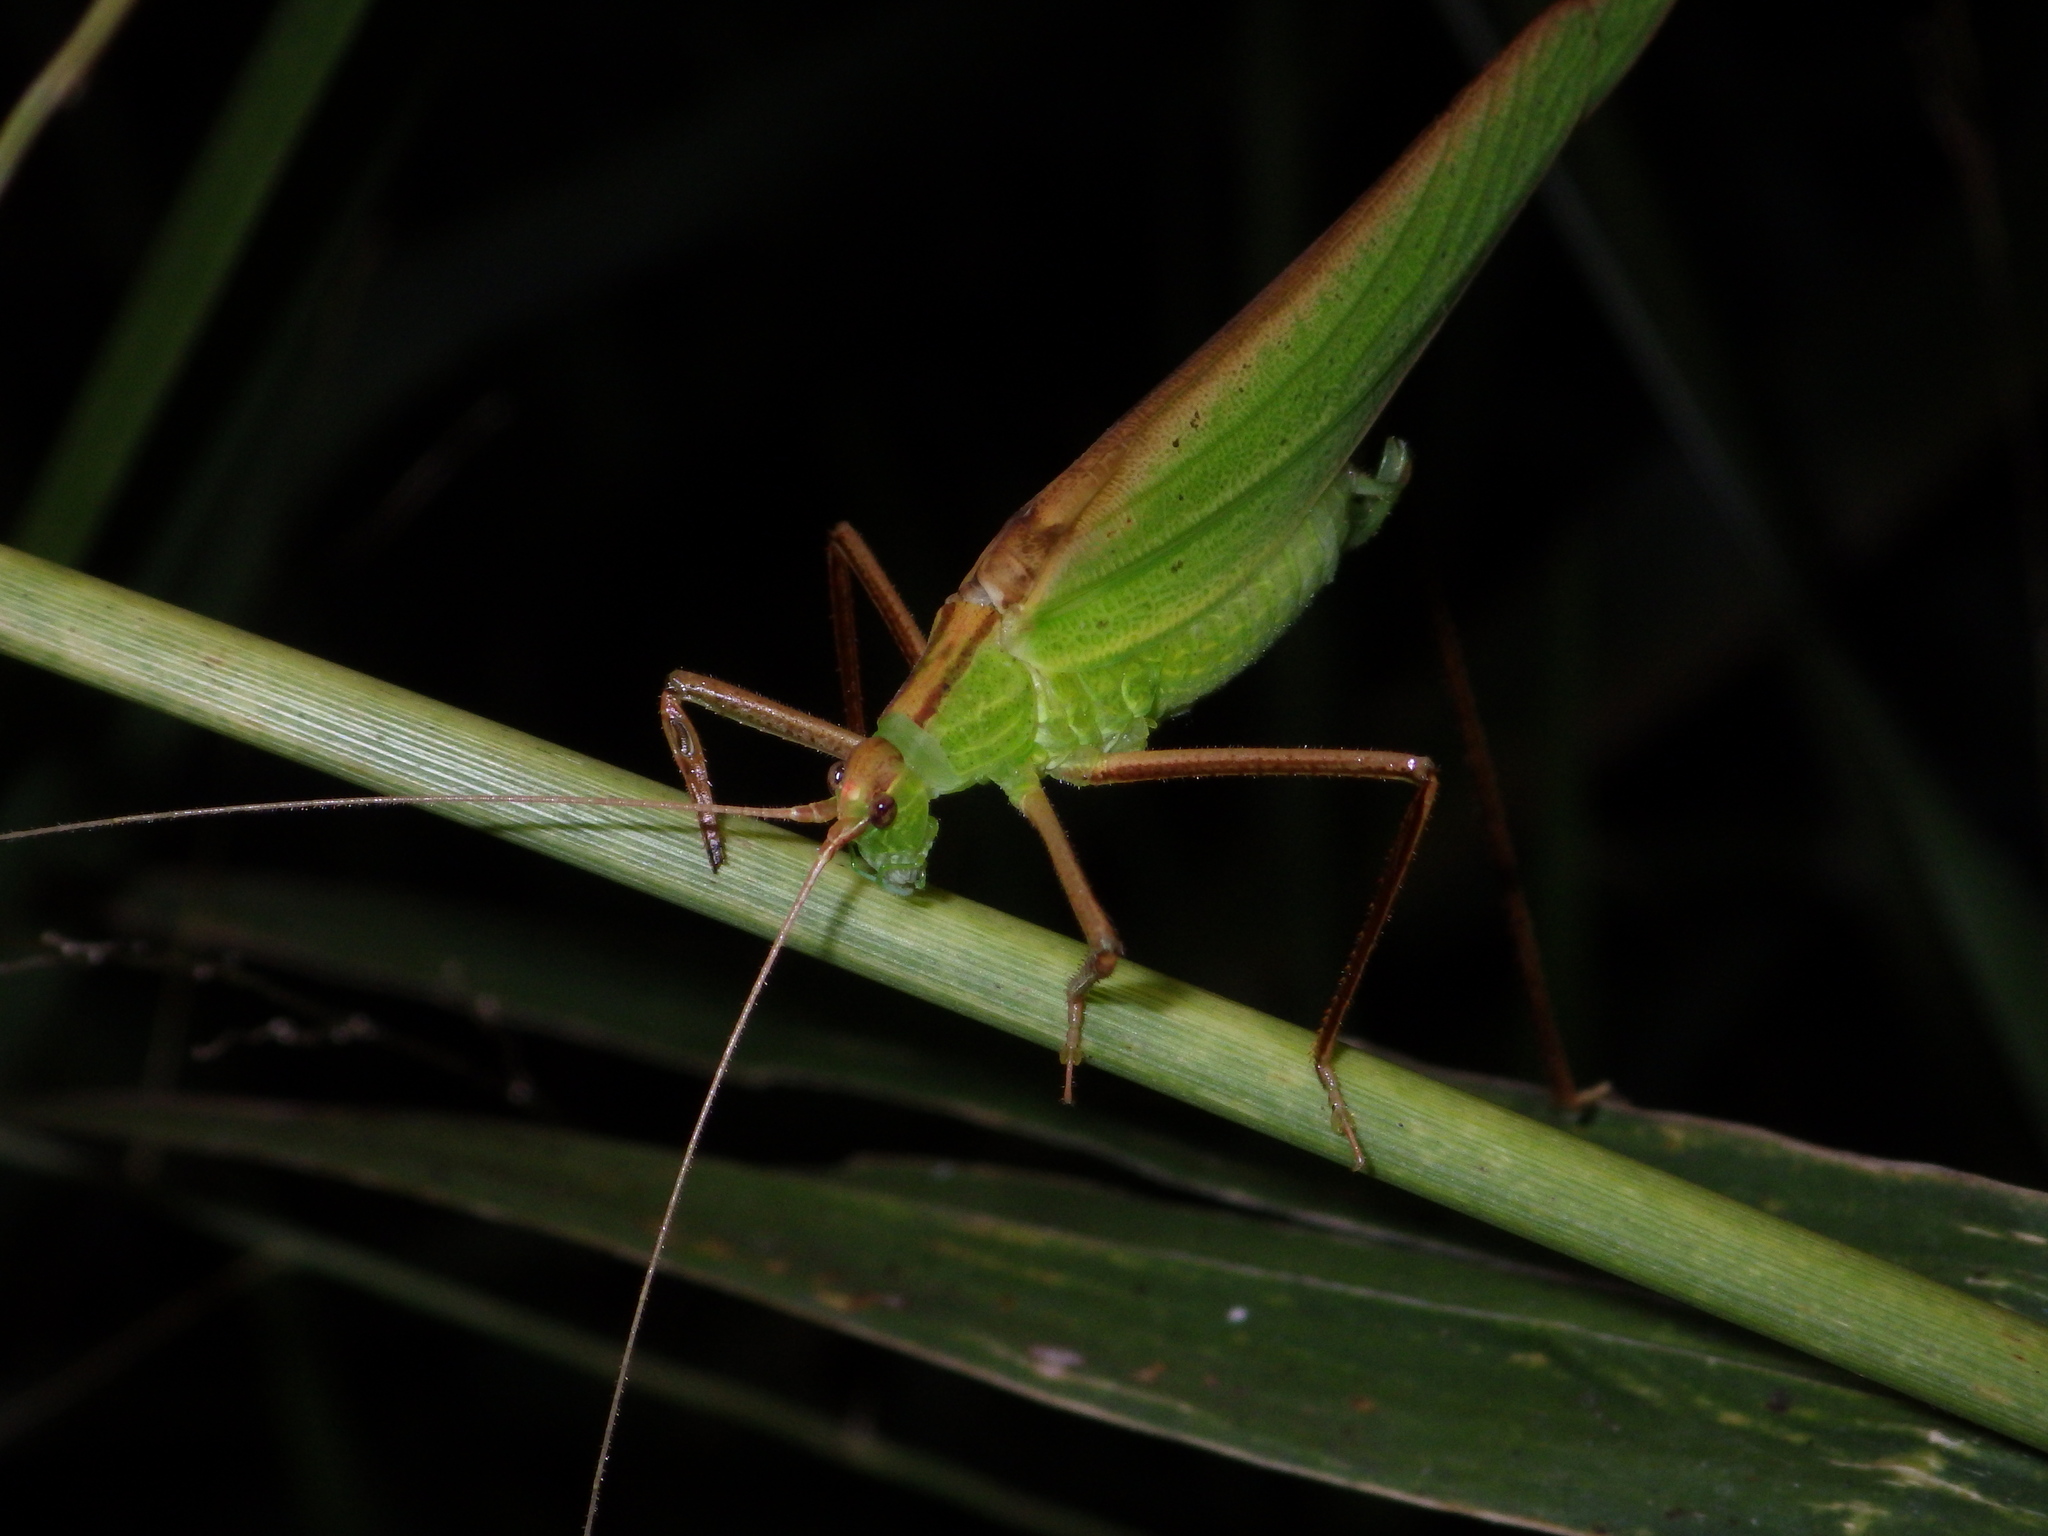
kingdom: Animalia
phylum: Arthropoda
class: Insecta
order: Orthoptera
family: Tettigoniidae
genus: Ducetia
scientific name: Ducetia antipoda
